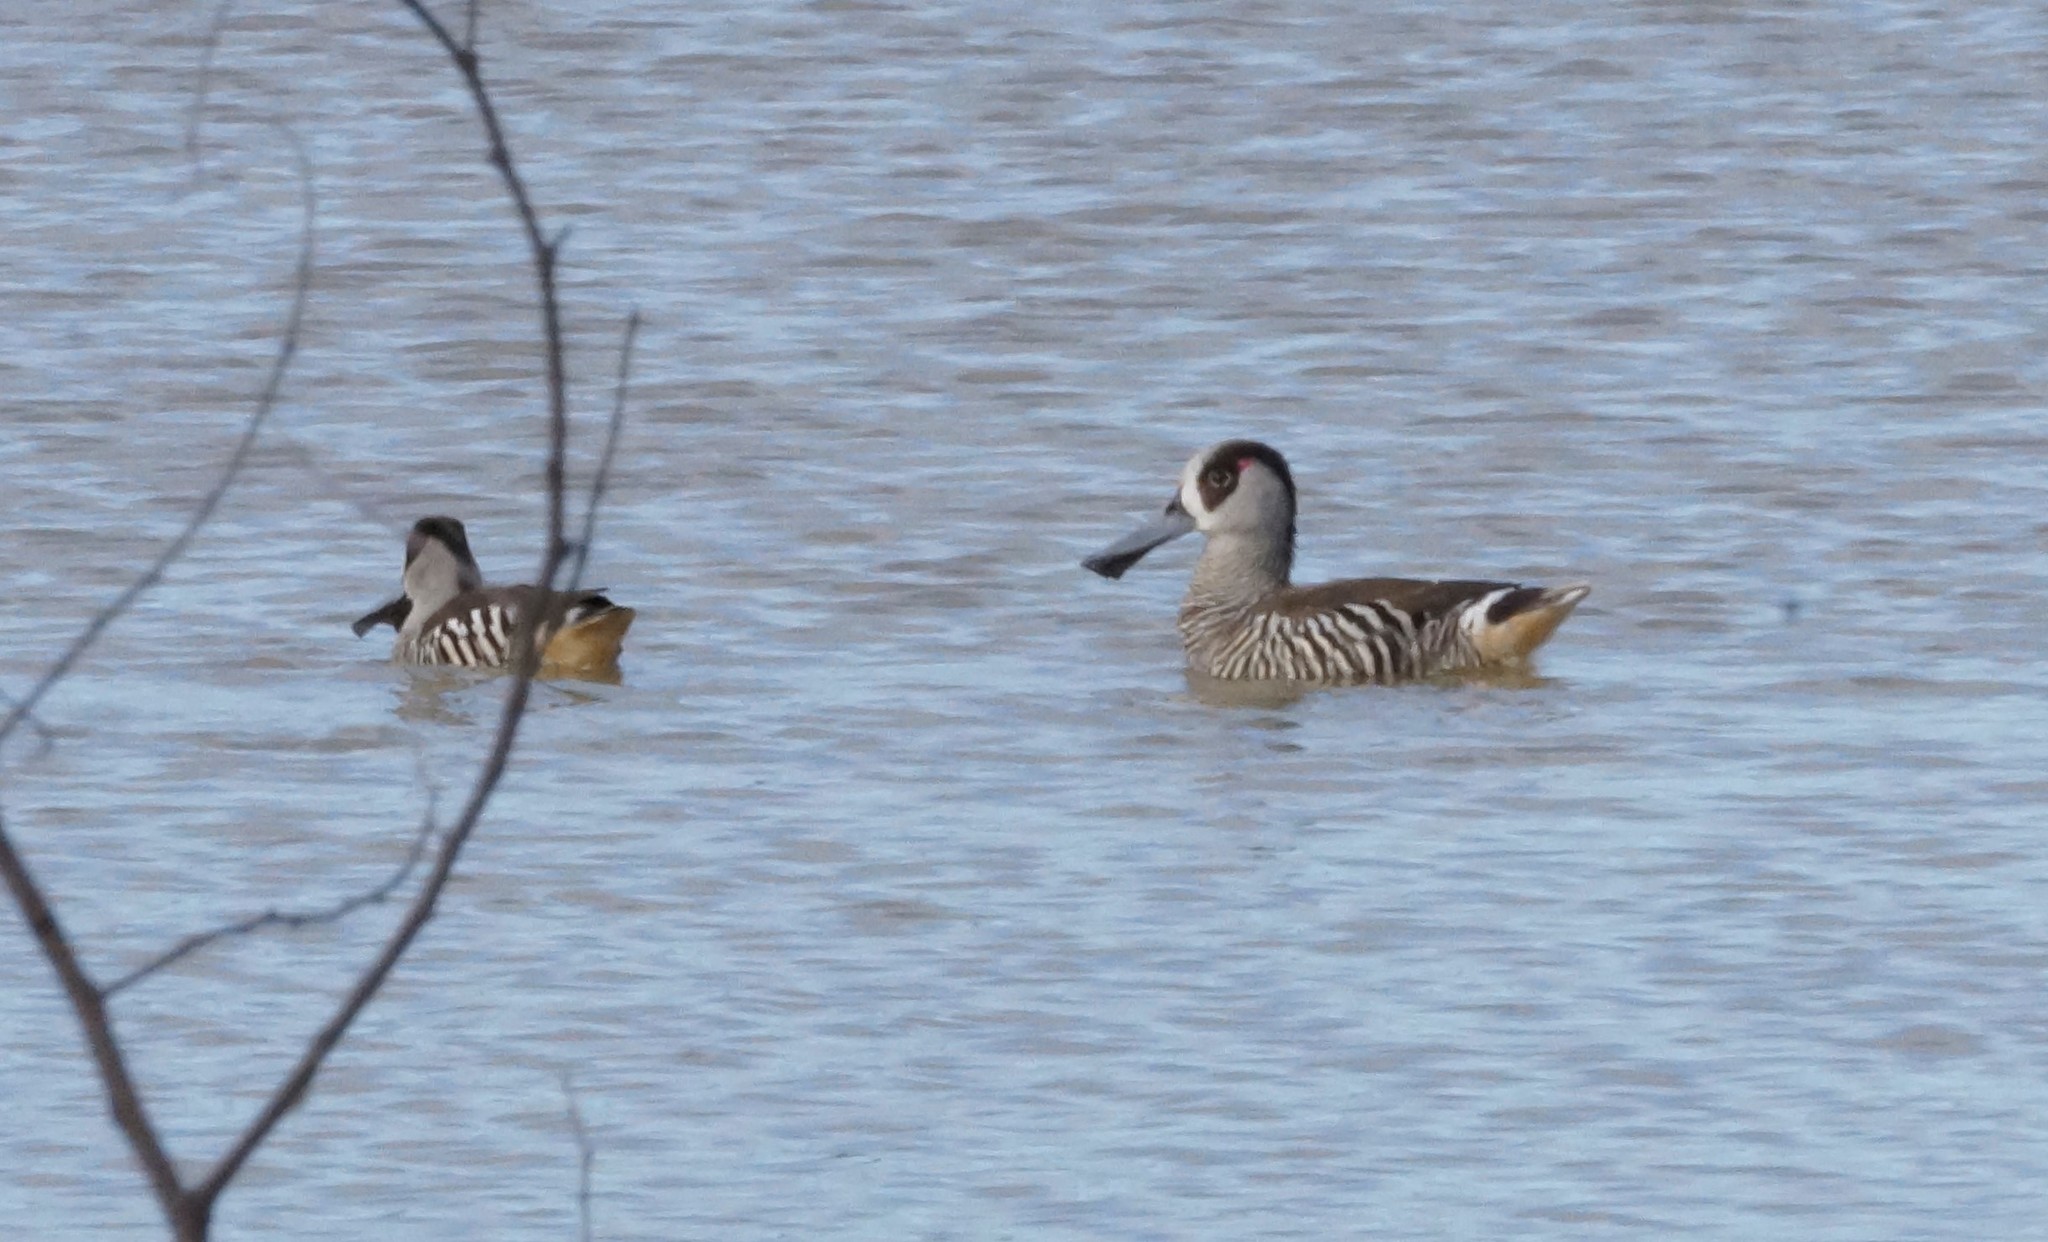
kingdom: Animalia
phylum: Chordata
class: Aves
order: Anseriformes
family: Anatidae
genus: Malacorhynchus
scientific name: Malacorhynchus membranaceus
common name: Pink-eared duck
